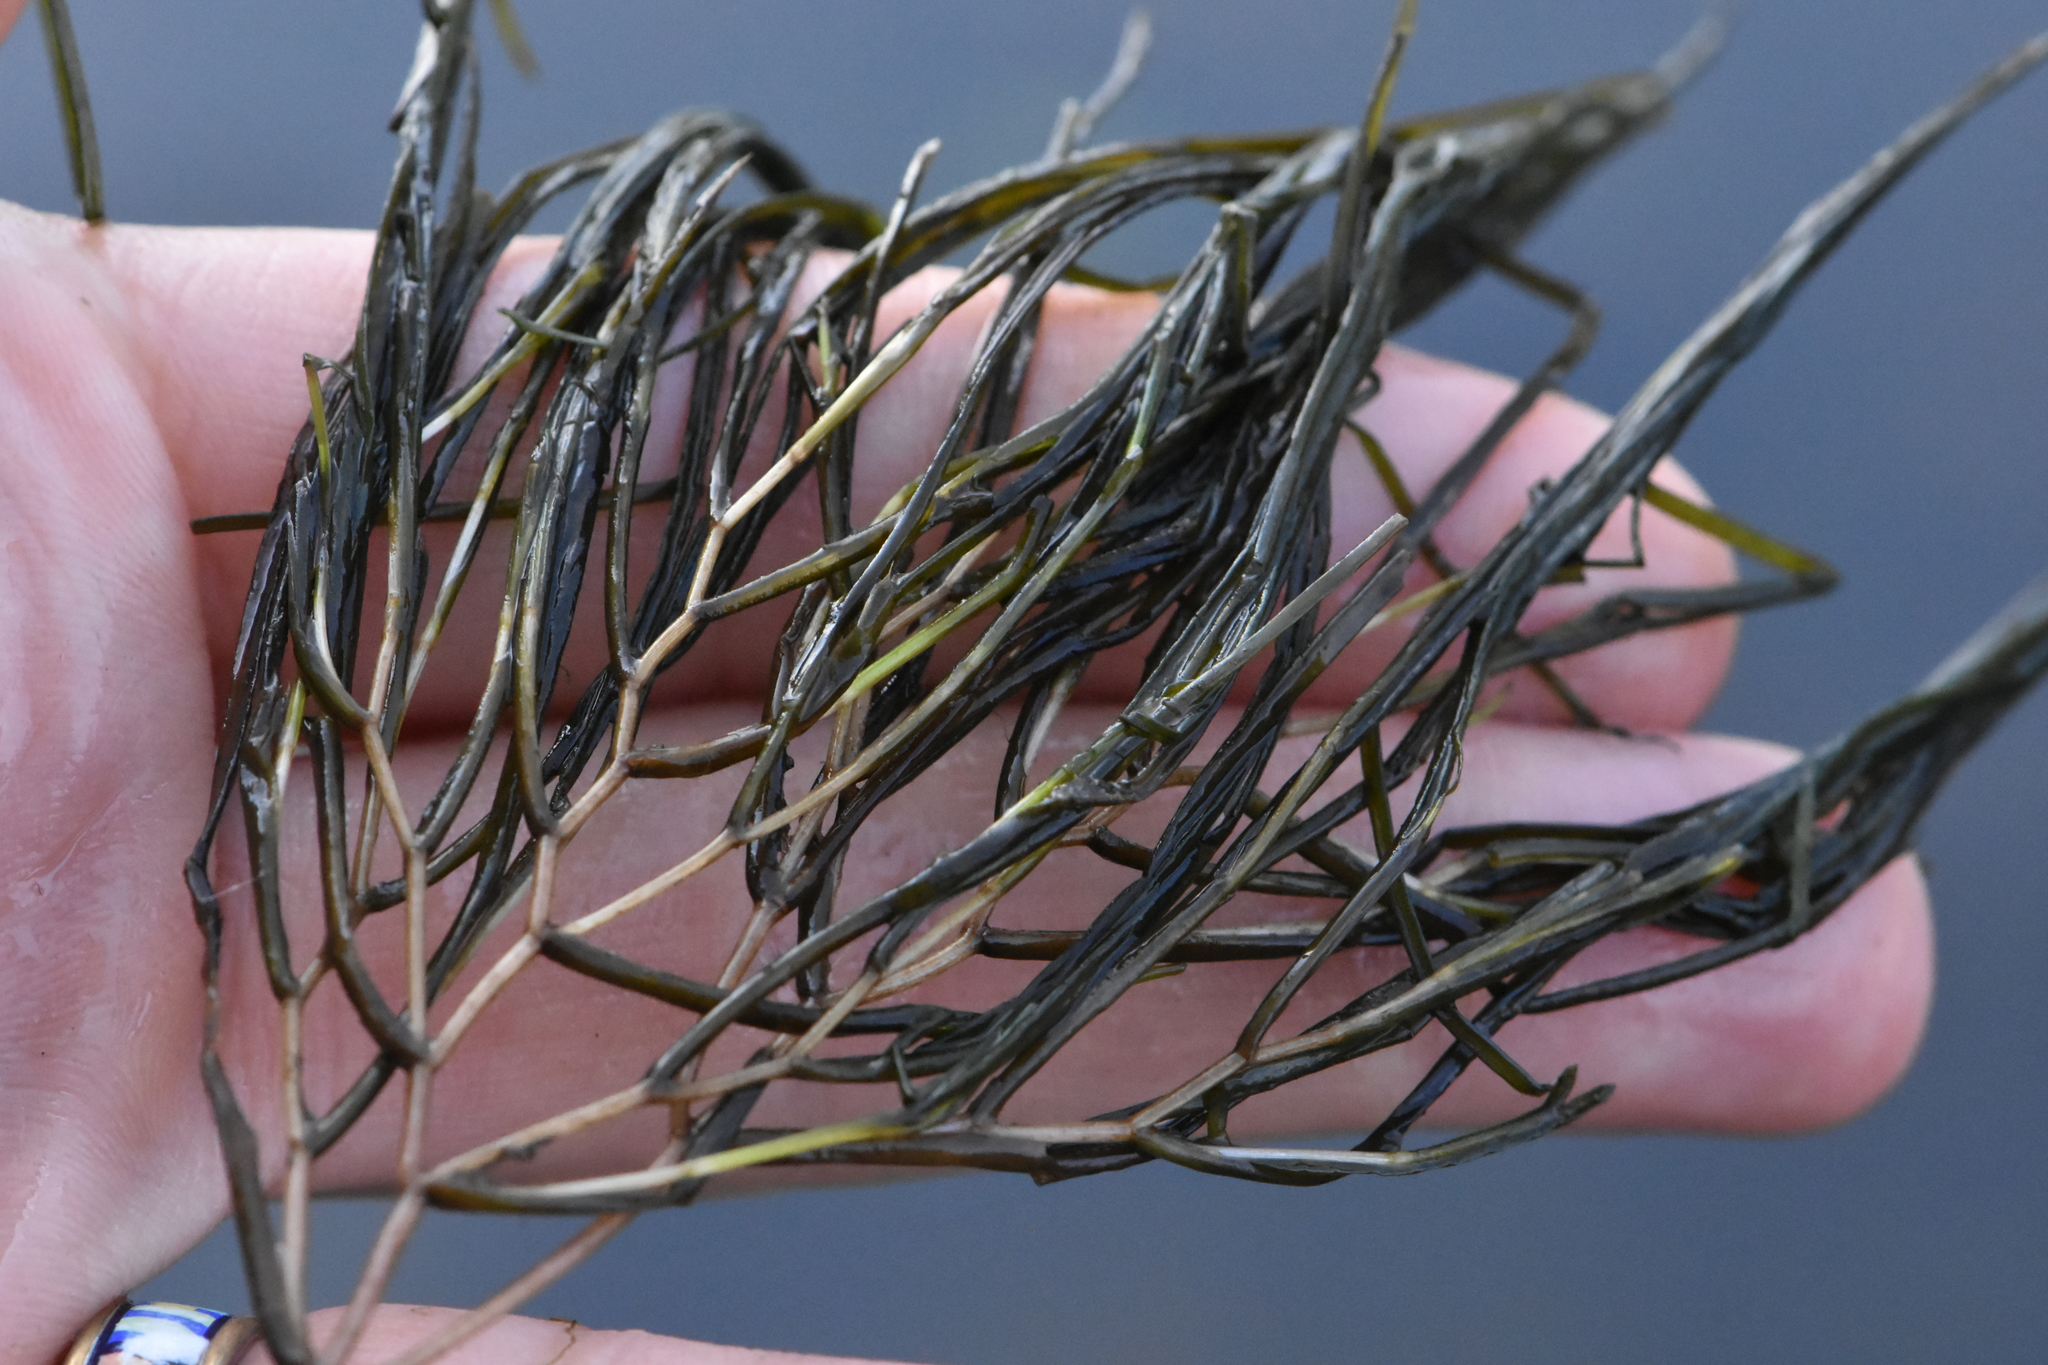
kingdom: Plantae
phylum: Tracheophyta
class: Liliopsida
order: Alismatales
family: Potamogetonaceae
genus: Stuckenia
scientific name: Stuckenia pectinata
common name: Sago pondweed
